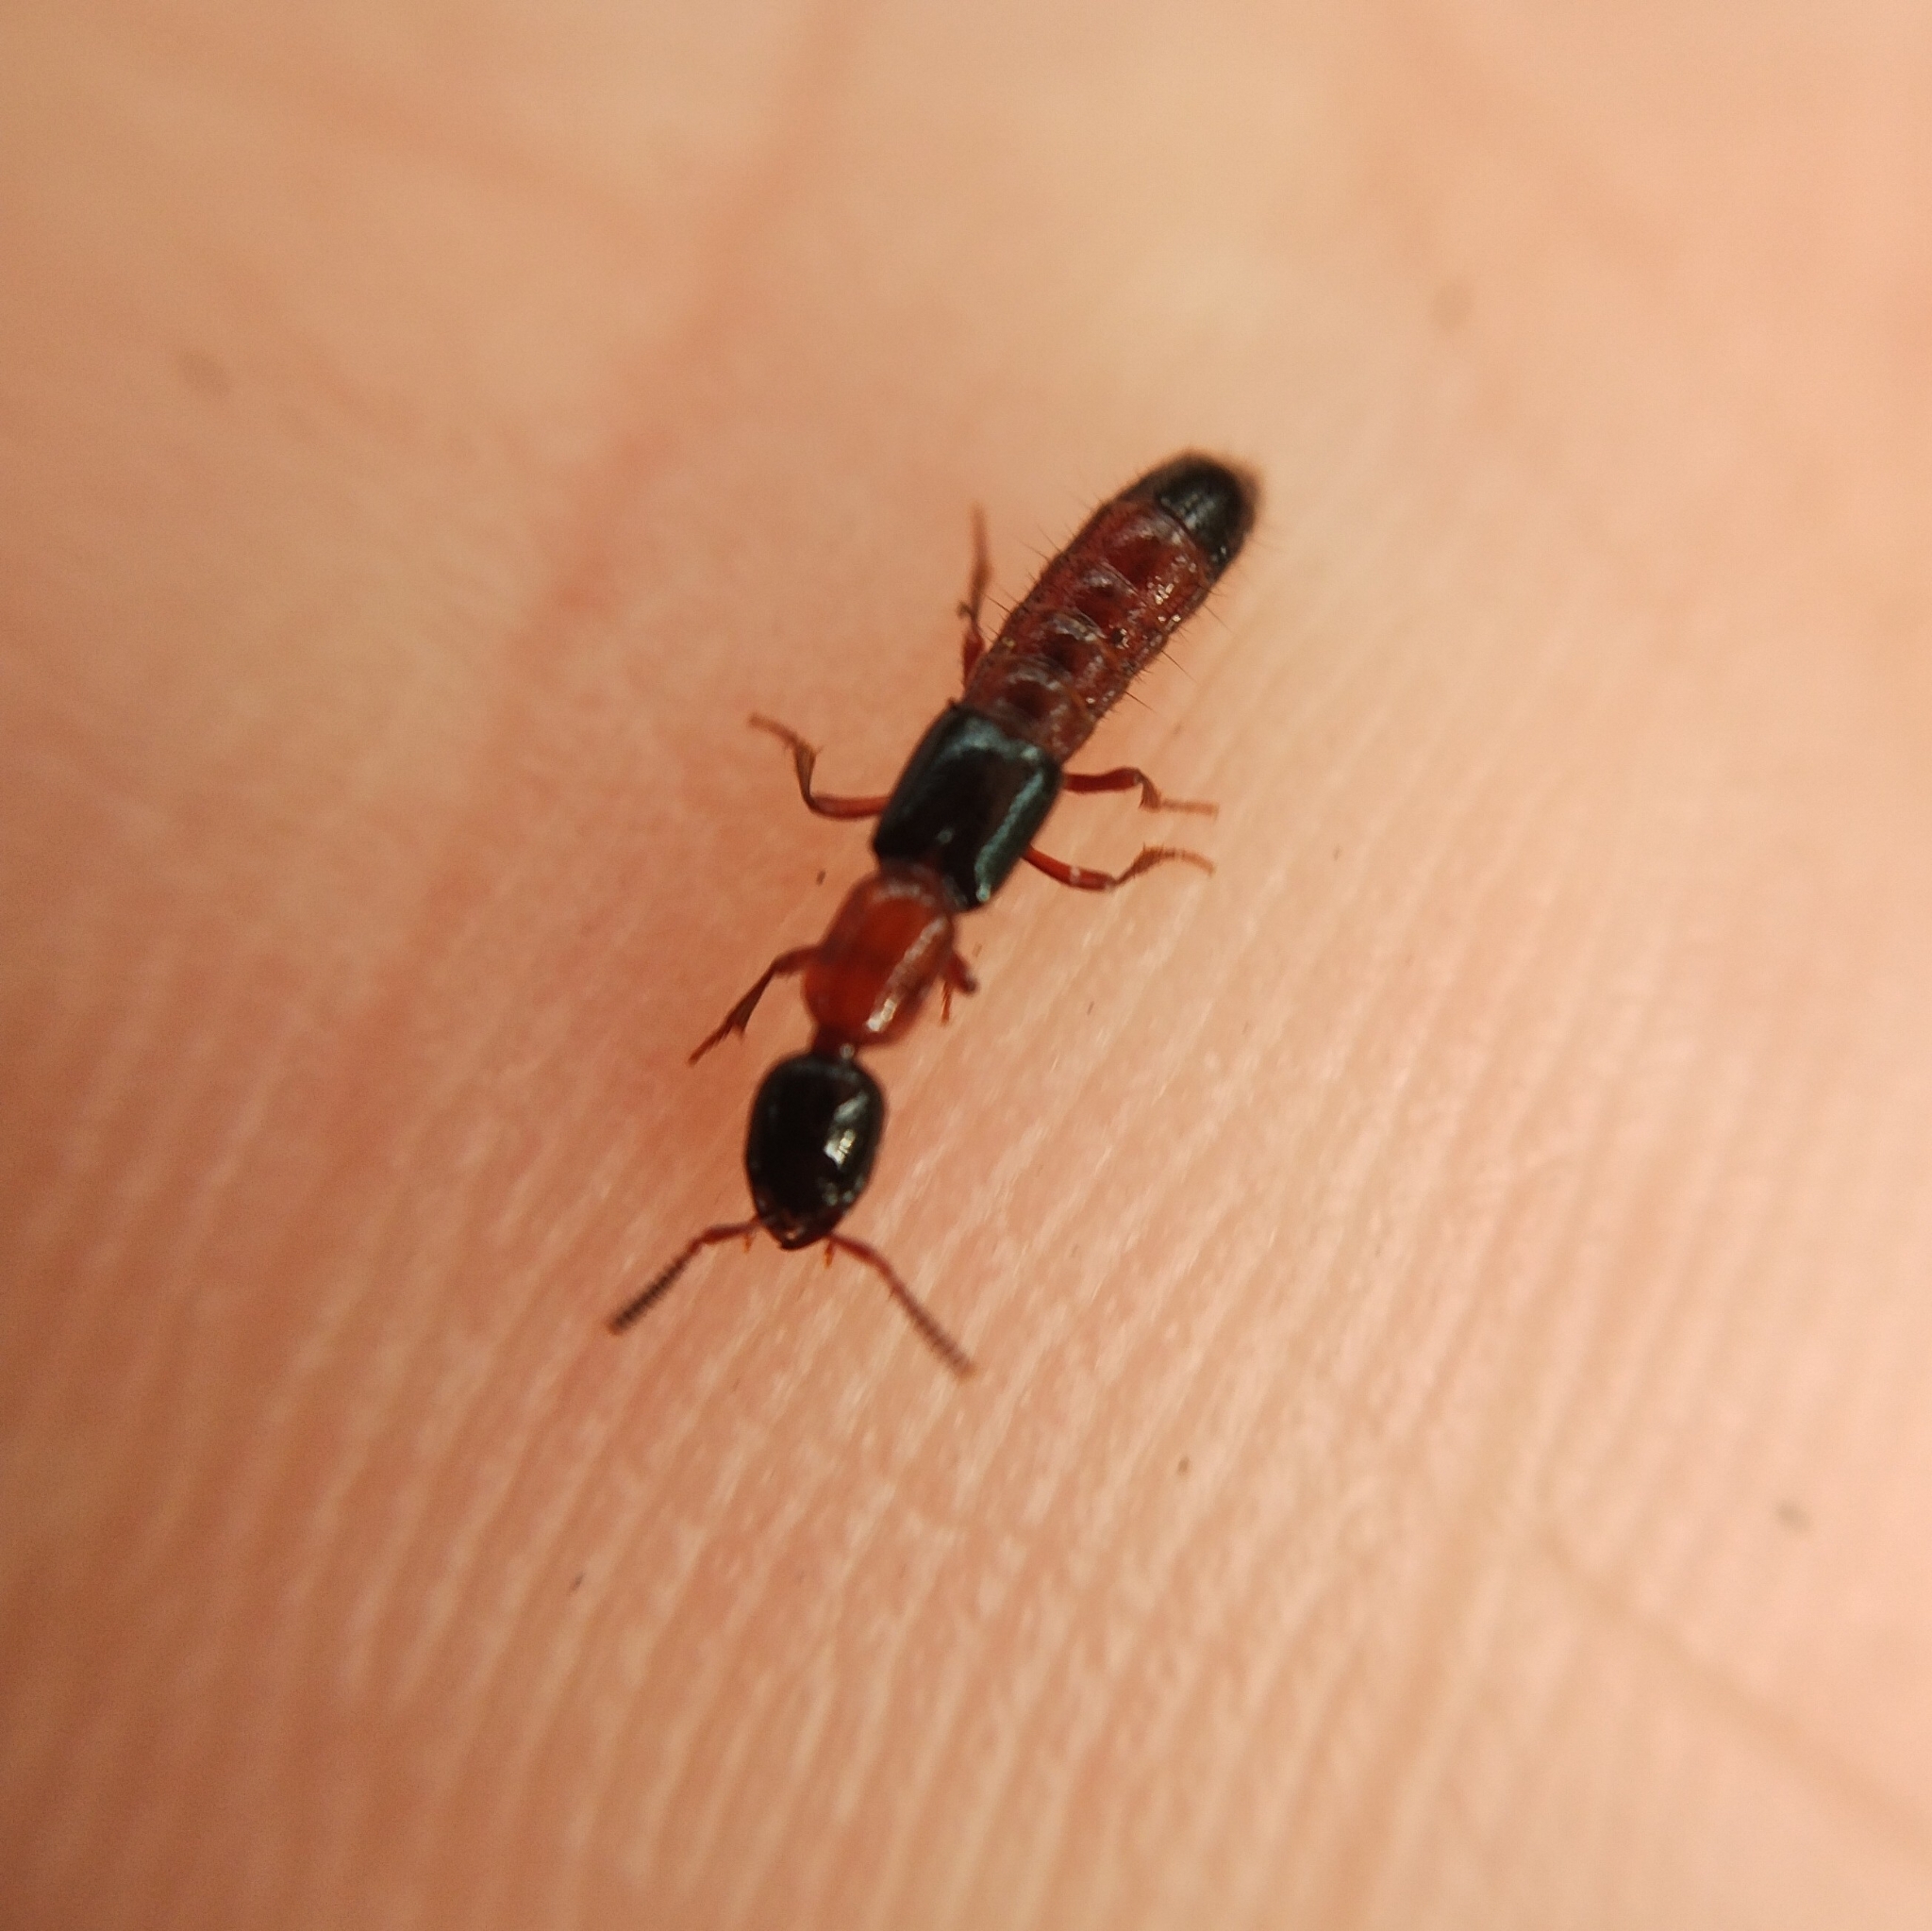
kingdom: Animalia
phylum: Arthropoda
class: Insecta
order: Coleoptera
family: Staphylinidae
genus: Milichilinus
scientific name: Milichilinus decorus
